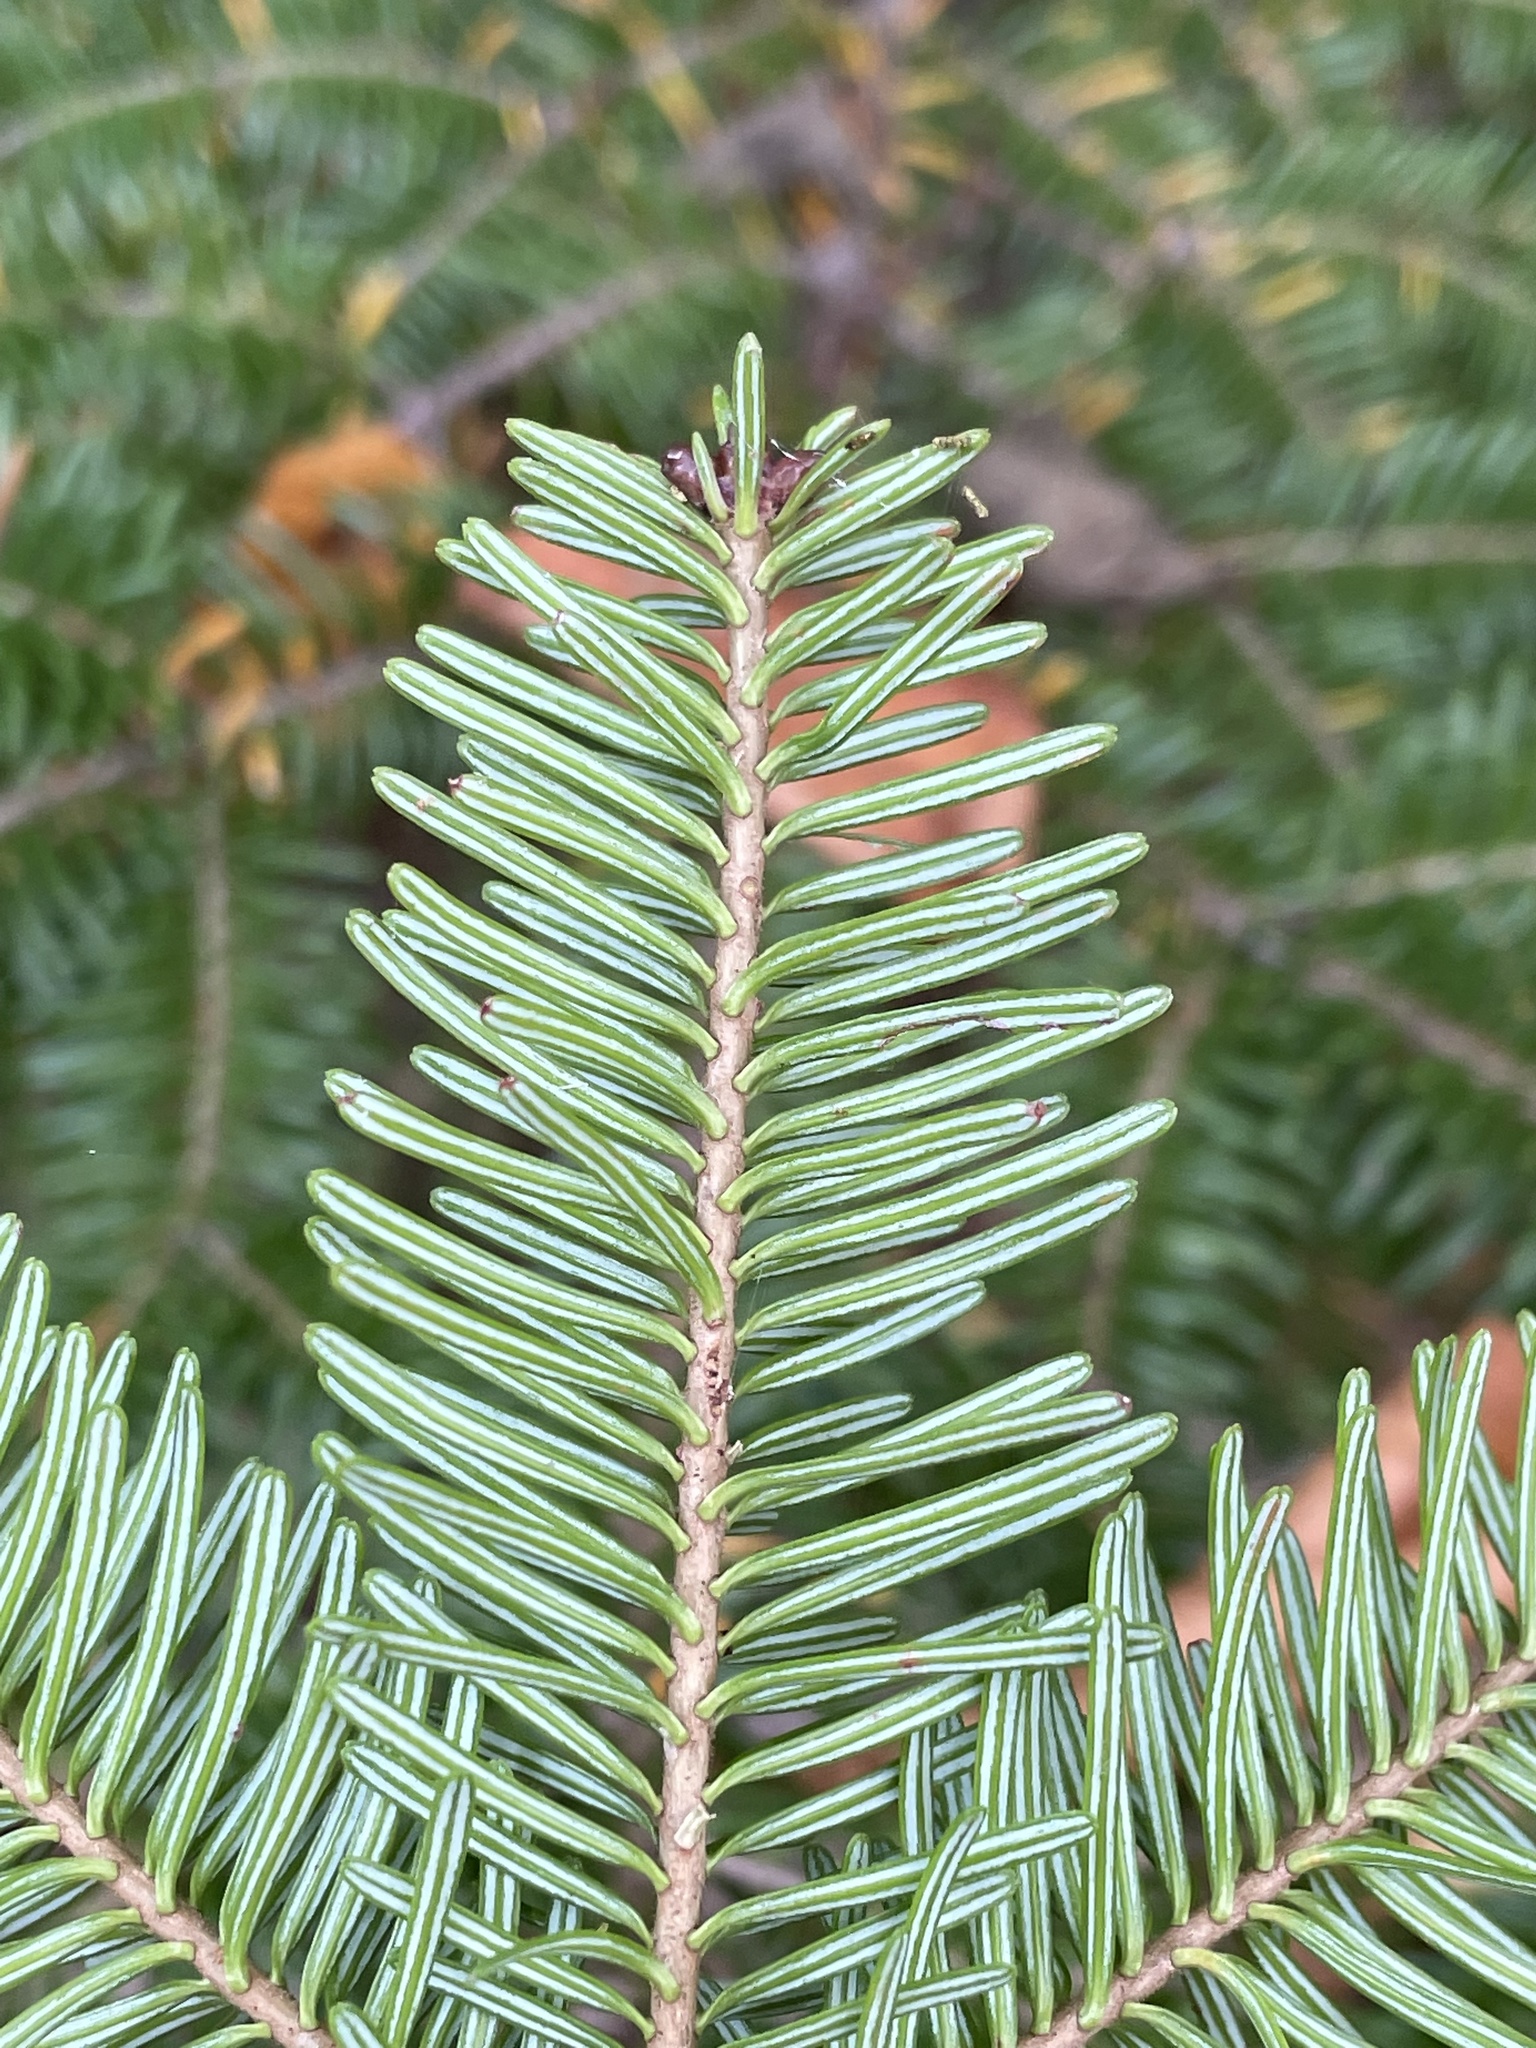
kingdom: Plantae
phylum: Tracheophyta
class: Pinopsida
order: Pinales
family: Pinaceae
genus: Abies
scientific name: Abies balsamea
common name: Balsam fir
